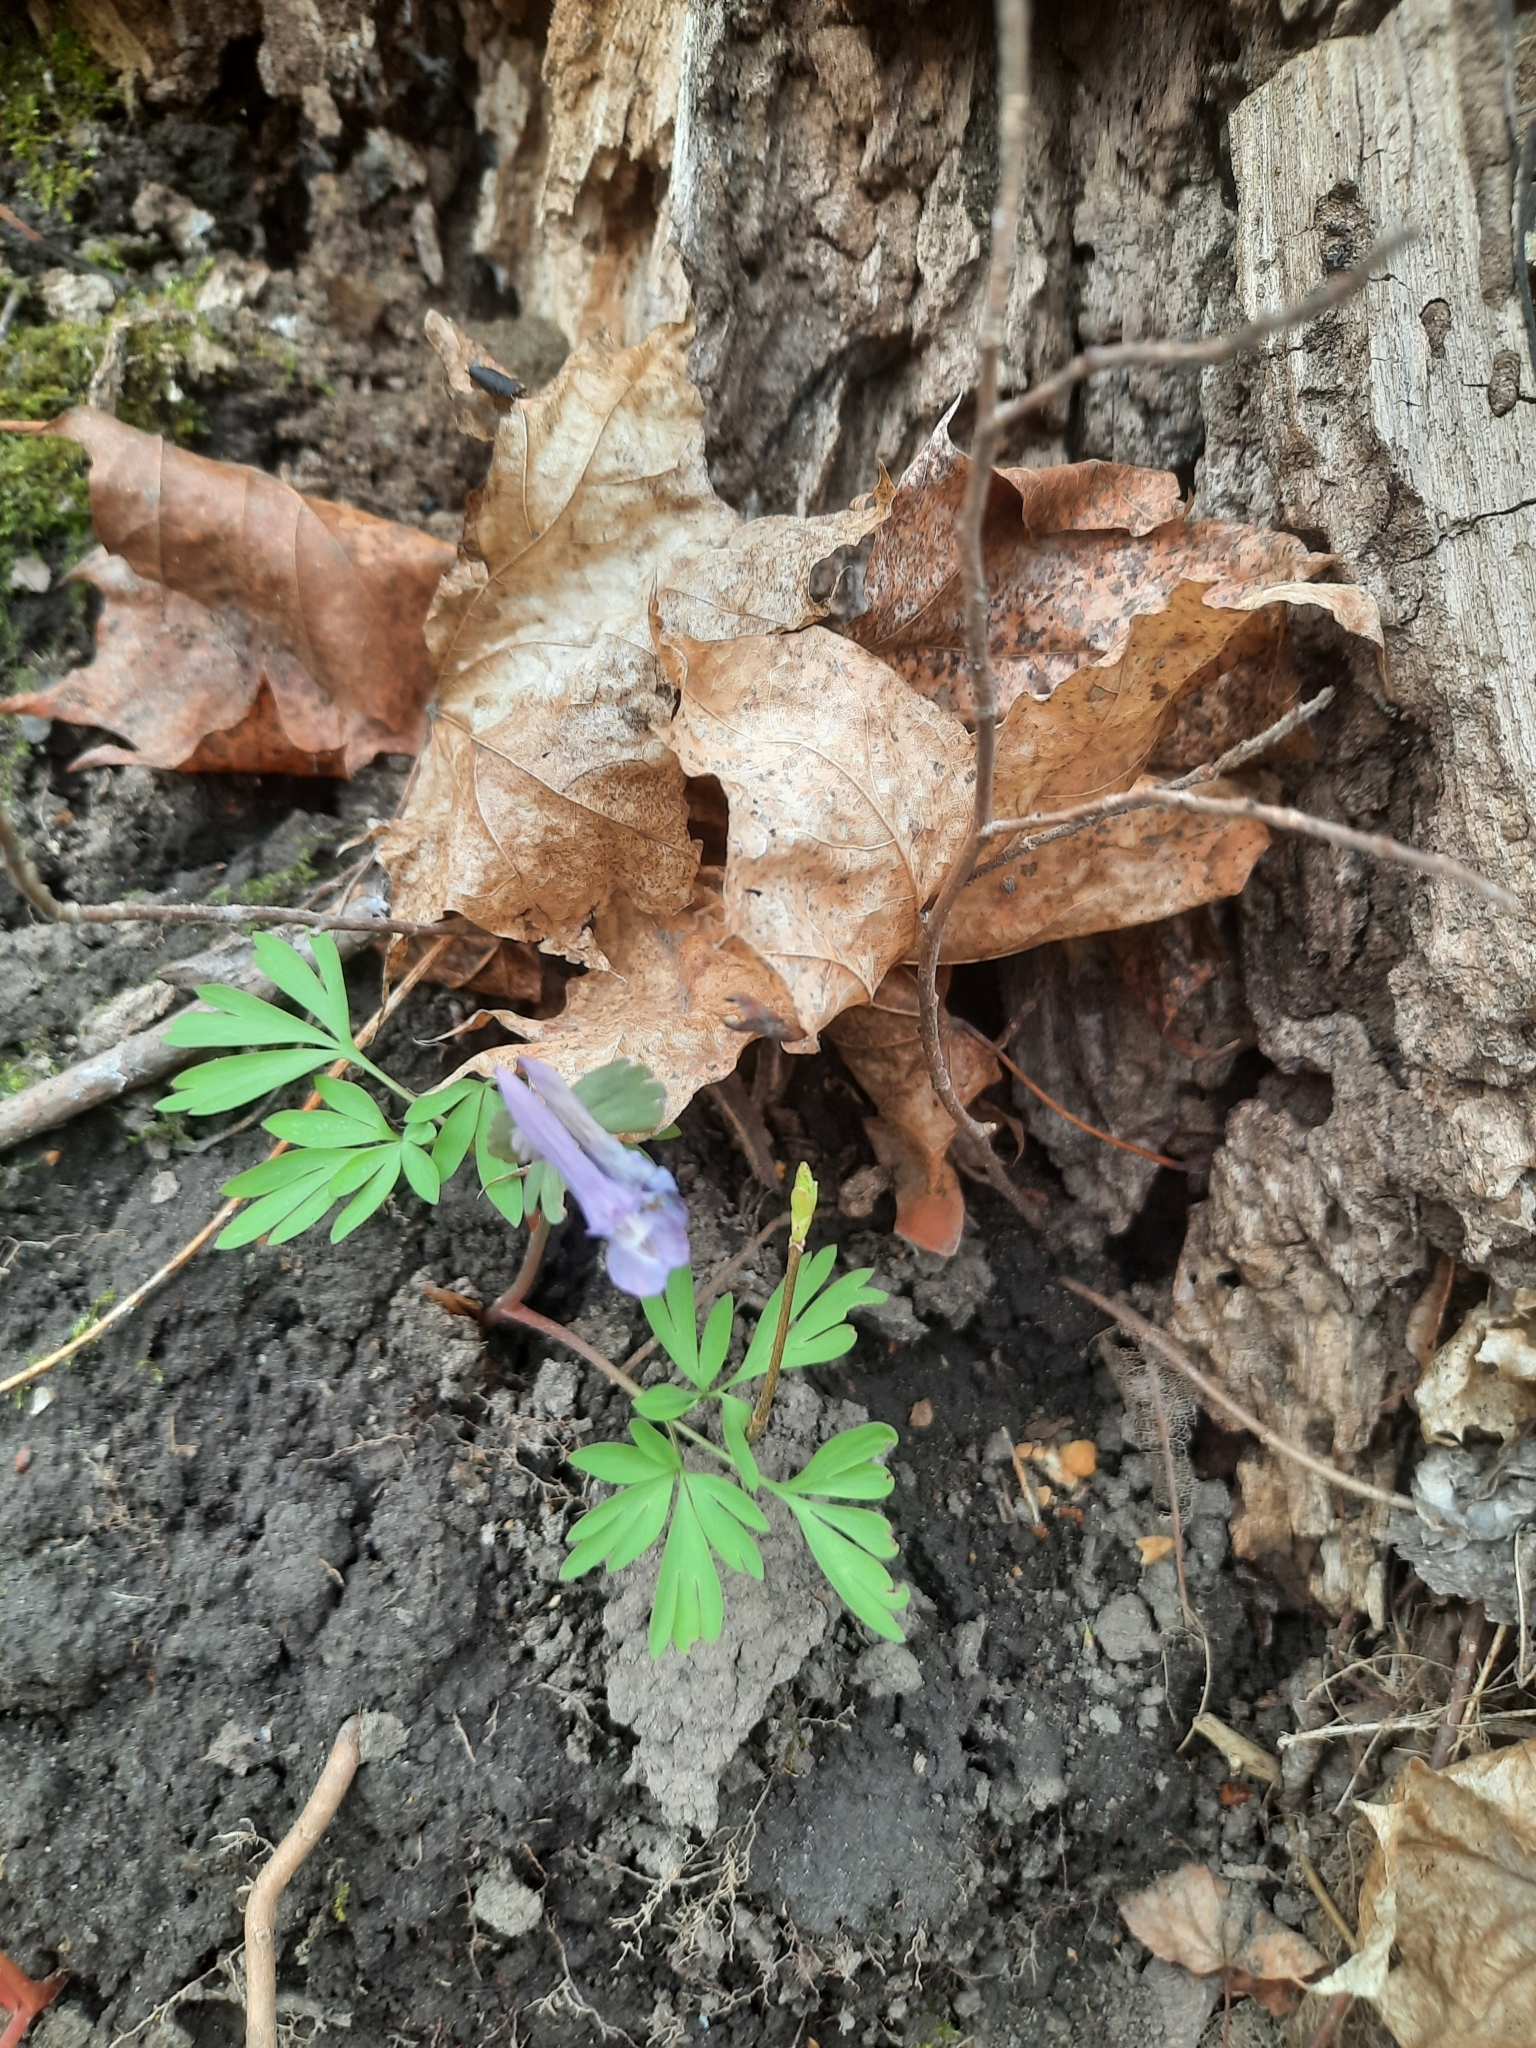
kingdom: Plantae
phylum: Tracheophyta
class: Magnoliopsida
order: Ranunculales
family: Papaveraceae
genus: Corydalis
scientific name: Corydalis solida
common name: Bird-in-a-bush
